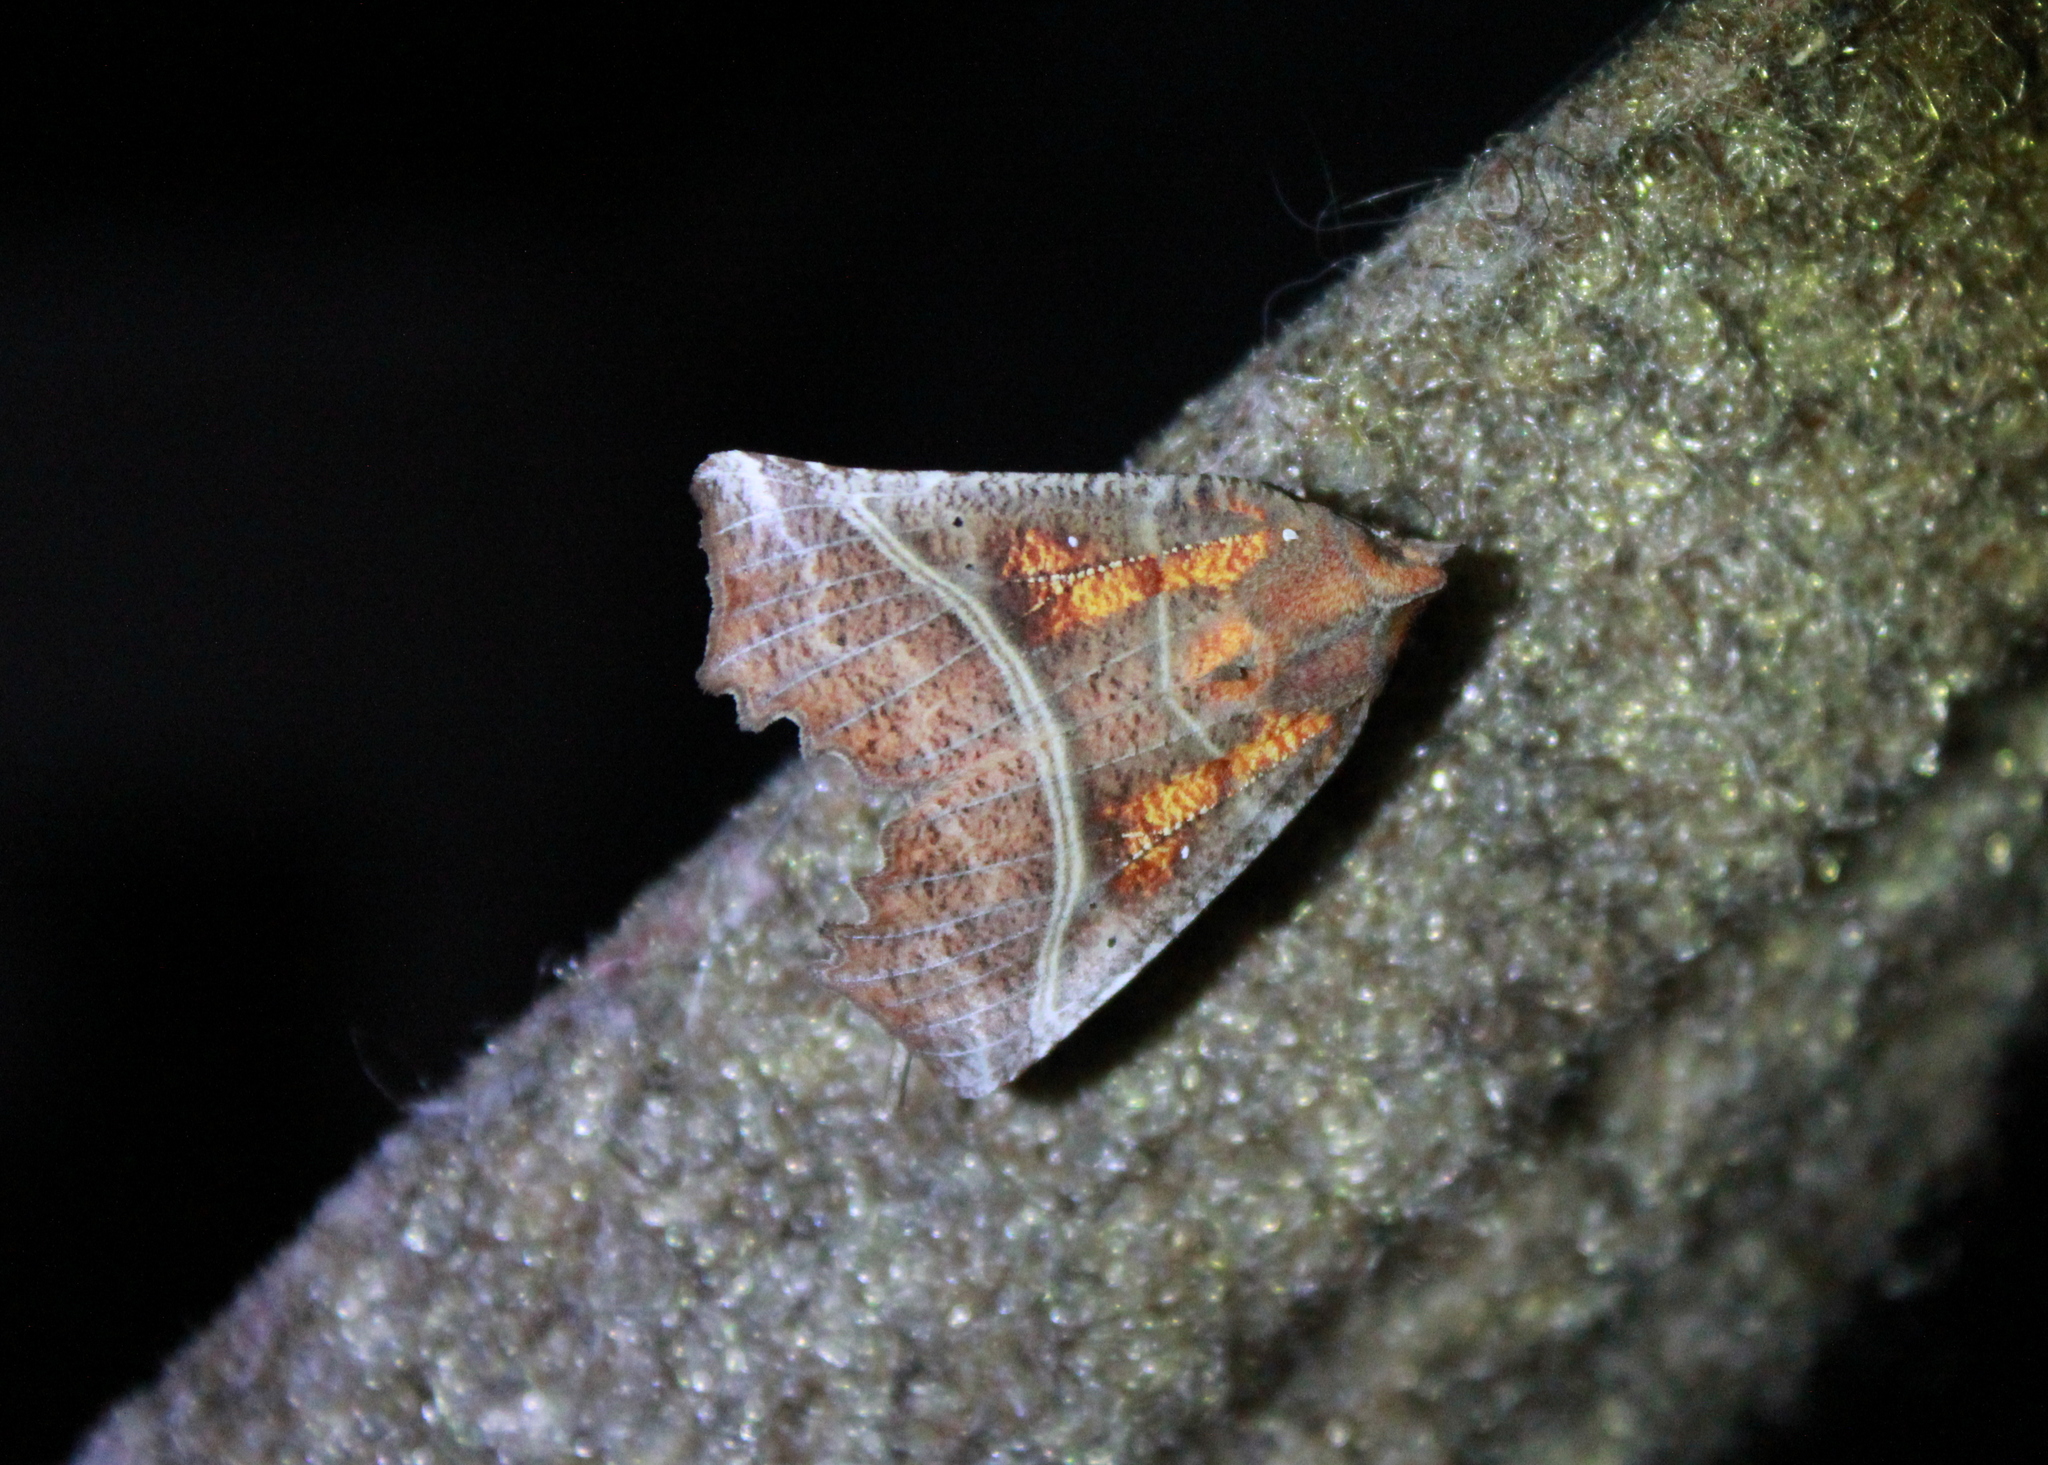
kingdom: Animalia
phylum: Arthropoda
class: Insecta
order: Lepidoptera
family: Erebidae
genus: Scoliopteryx
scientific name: Scoliopteryx libatrix
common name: Herald
